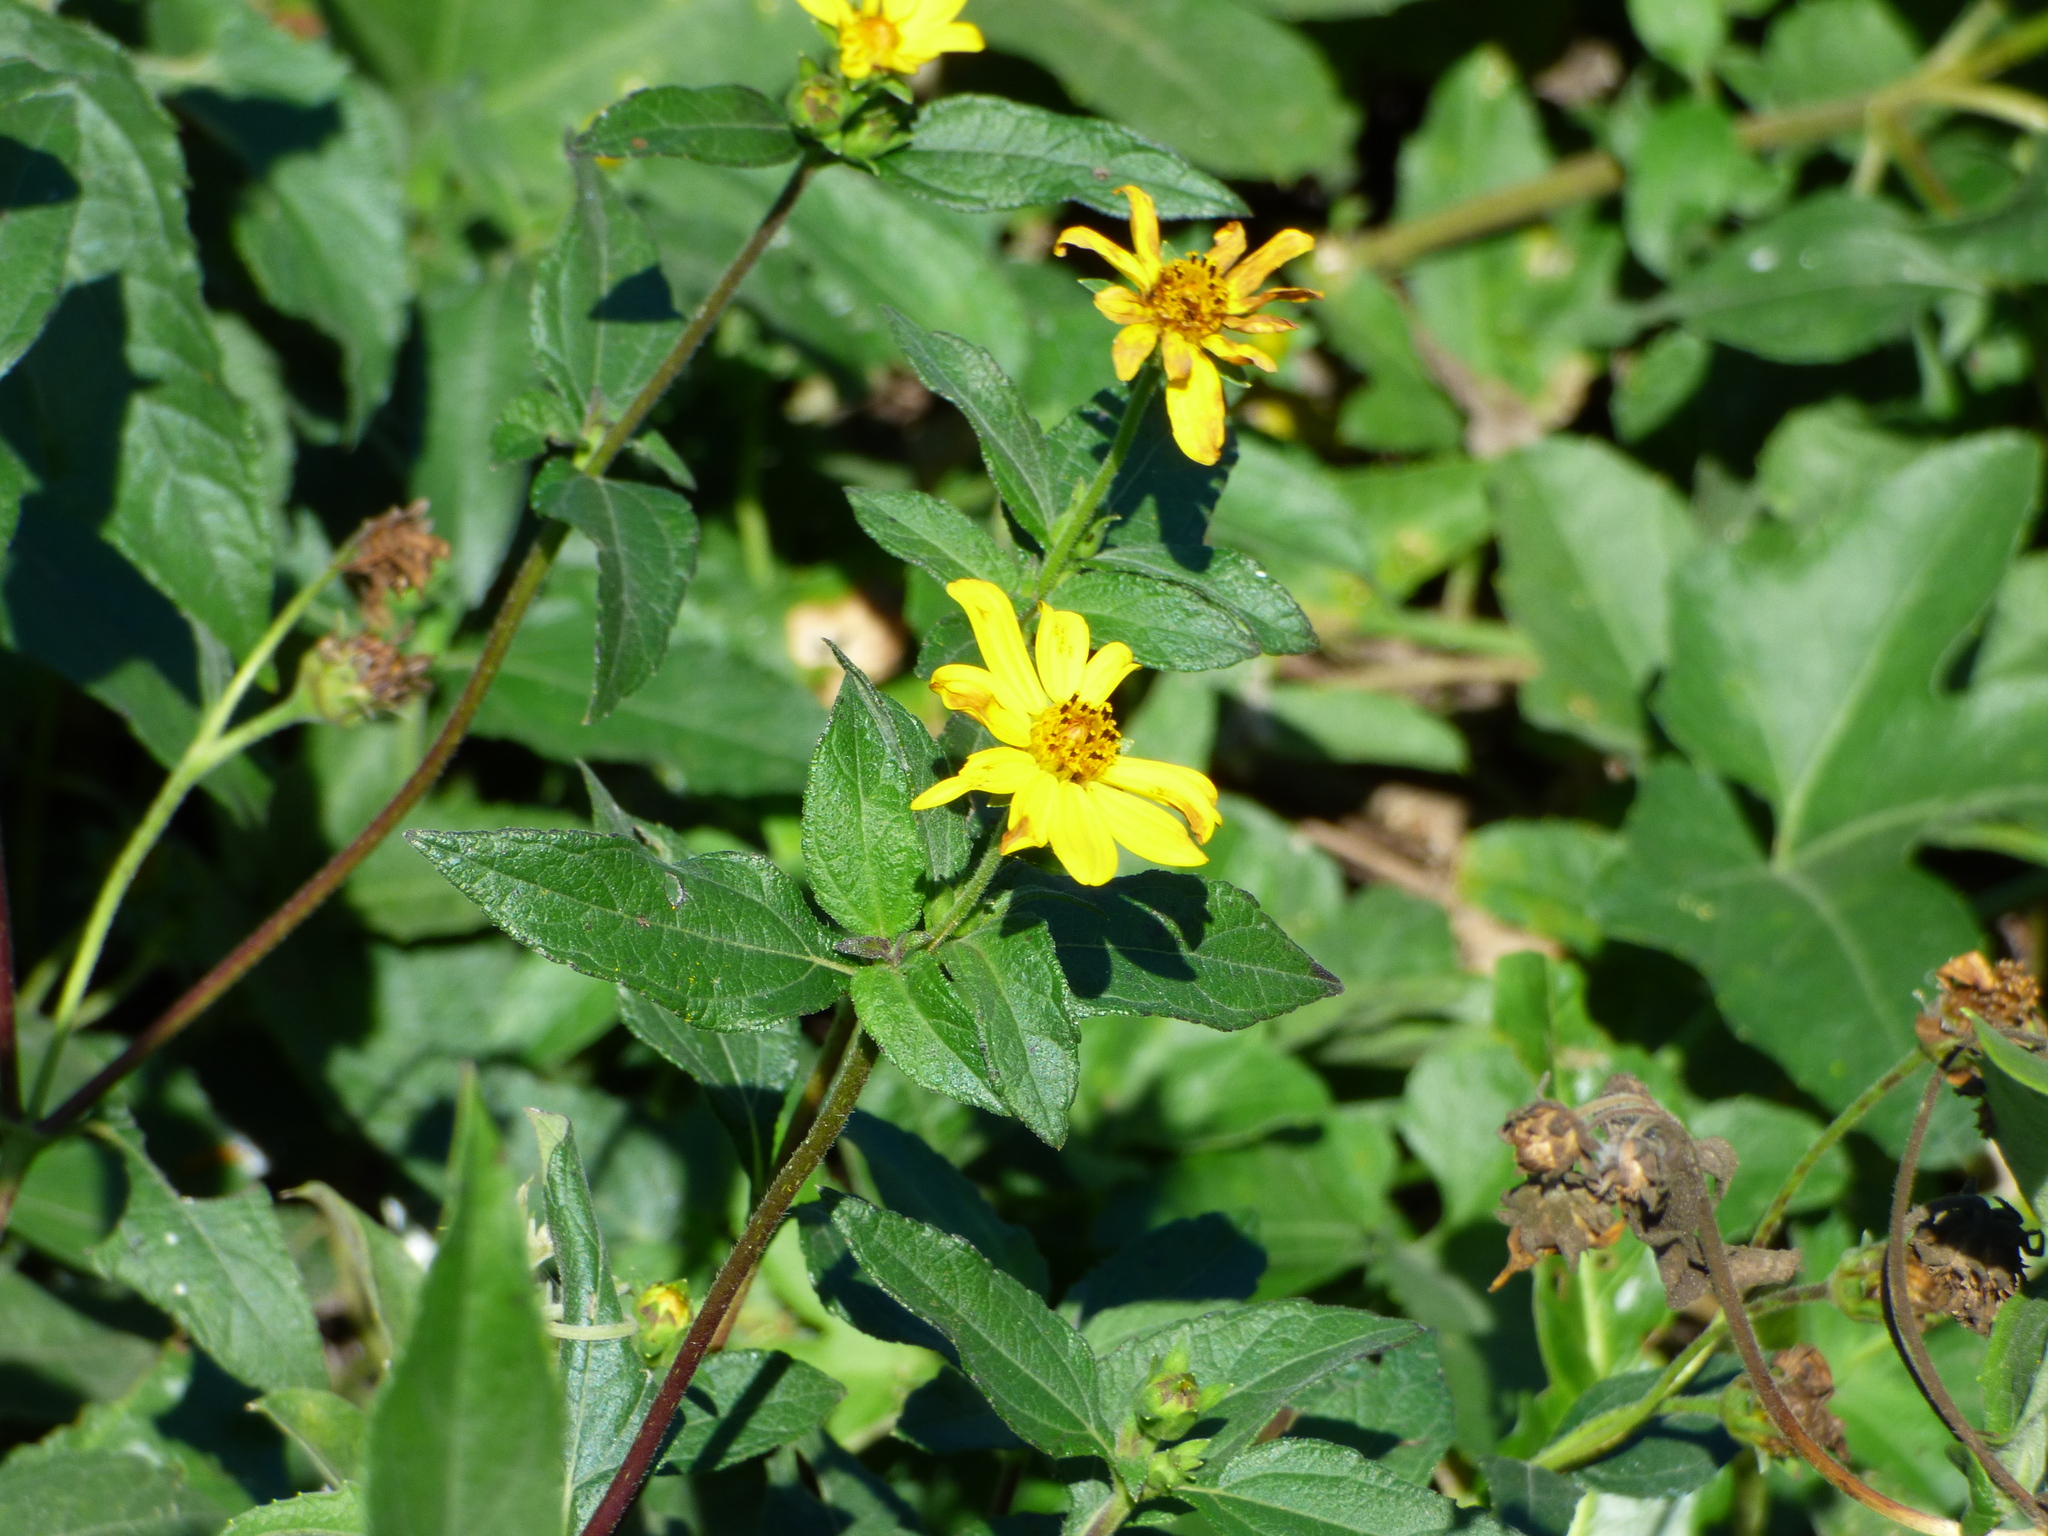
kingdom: Plantae
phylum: Tracheophyta
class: Magnoliopsida
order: Asterales
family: Asteraceae
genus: Wedelia
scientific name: Wedelia silphioides
